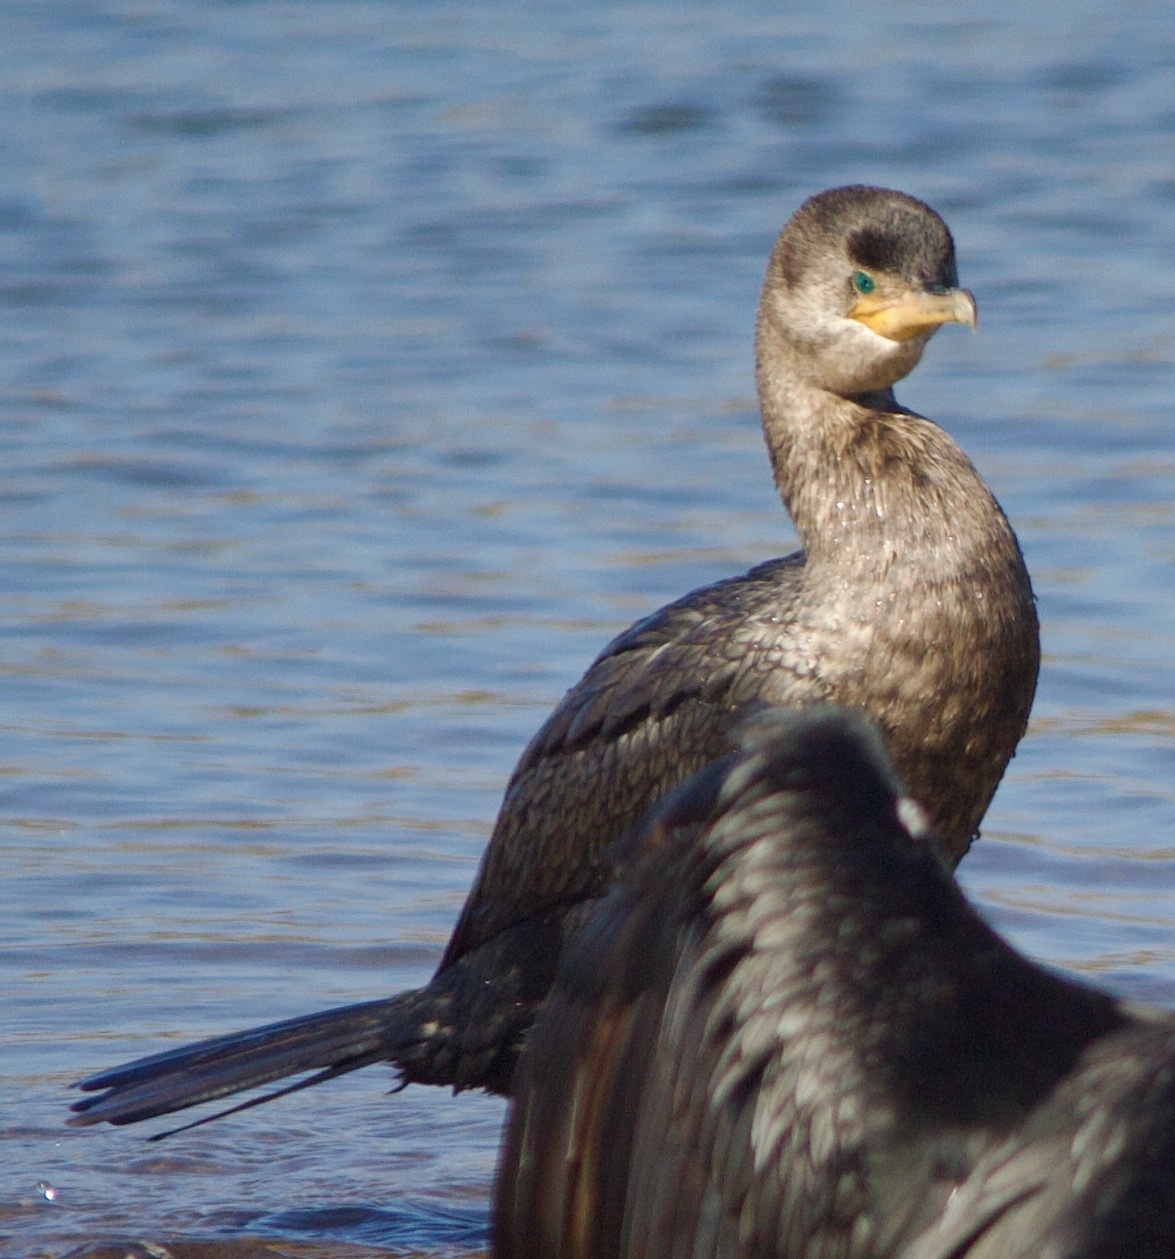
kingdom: Animalia
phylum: Chordata
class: Aves
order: Suliformes
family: Phalacrocoracidae
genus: Phalacrocorax
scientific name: Phalacrocorax brasilianus
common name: Neotropic cormorant
